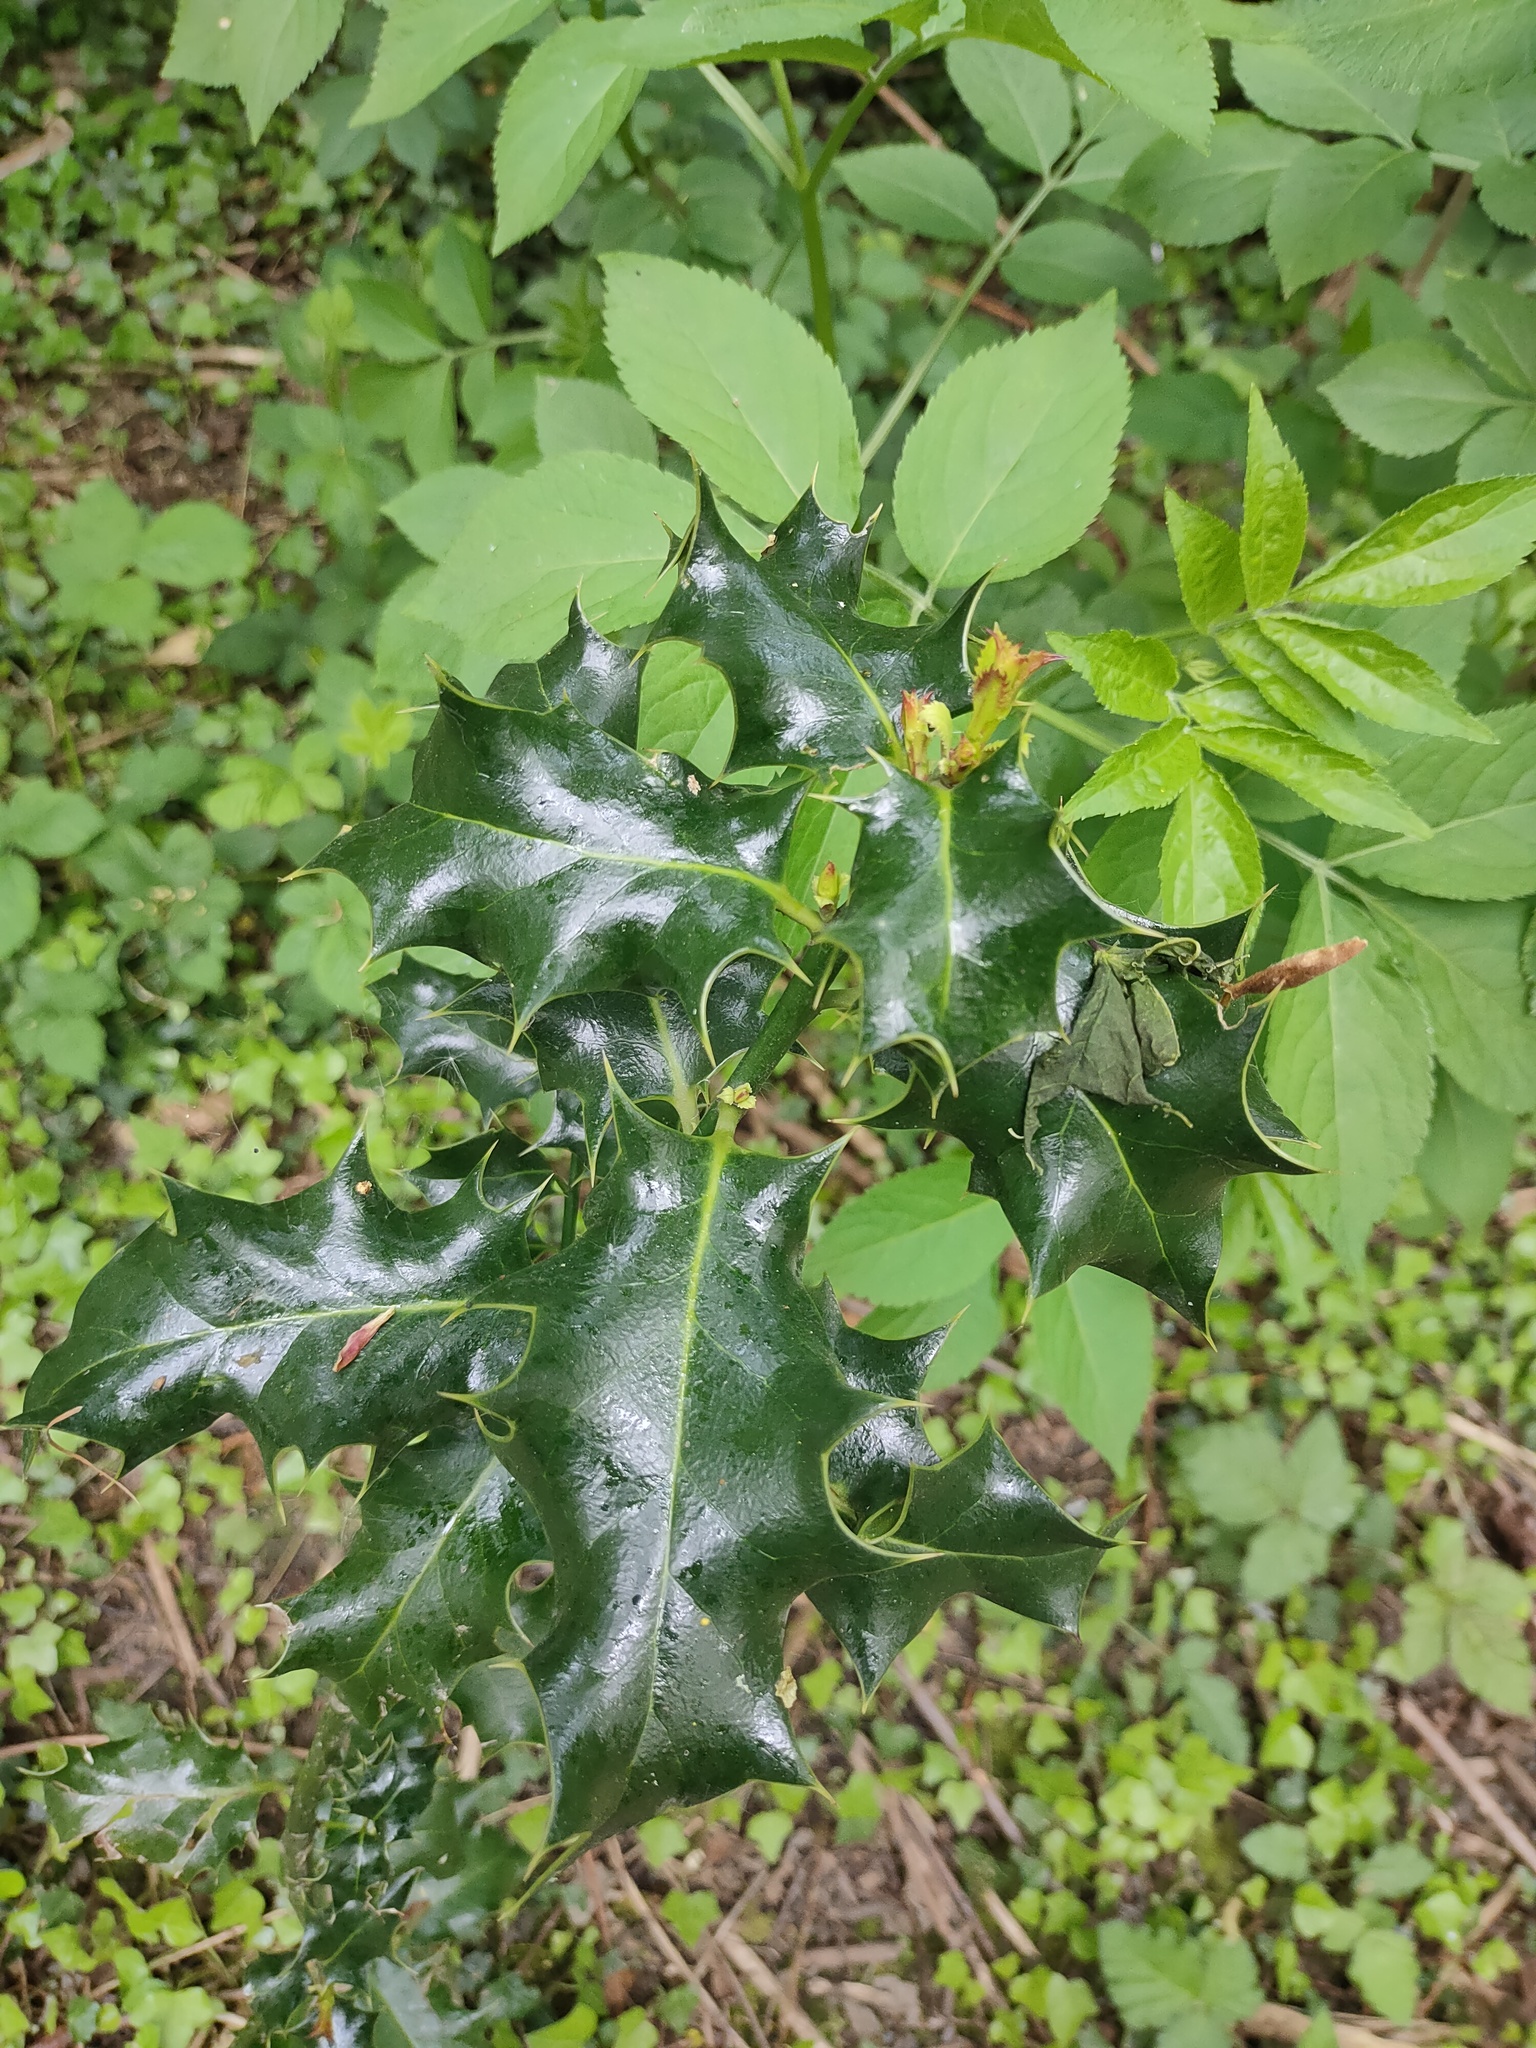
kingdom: Plantae
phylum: Tracheophyta
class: Magnoliopsida
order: Aquifoliales
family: Aquifoliaceae
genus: Ilex
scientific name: Ilex aquifolium
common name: English holly
